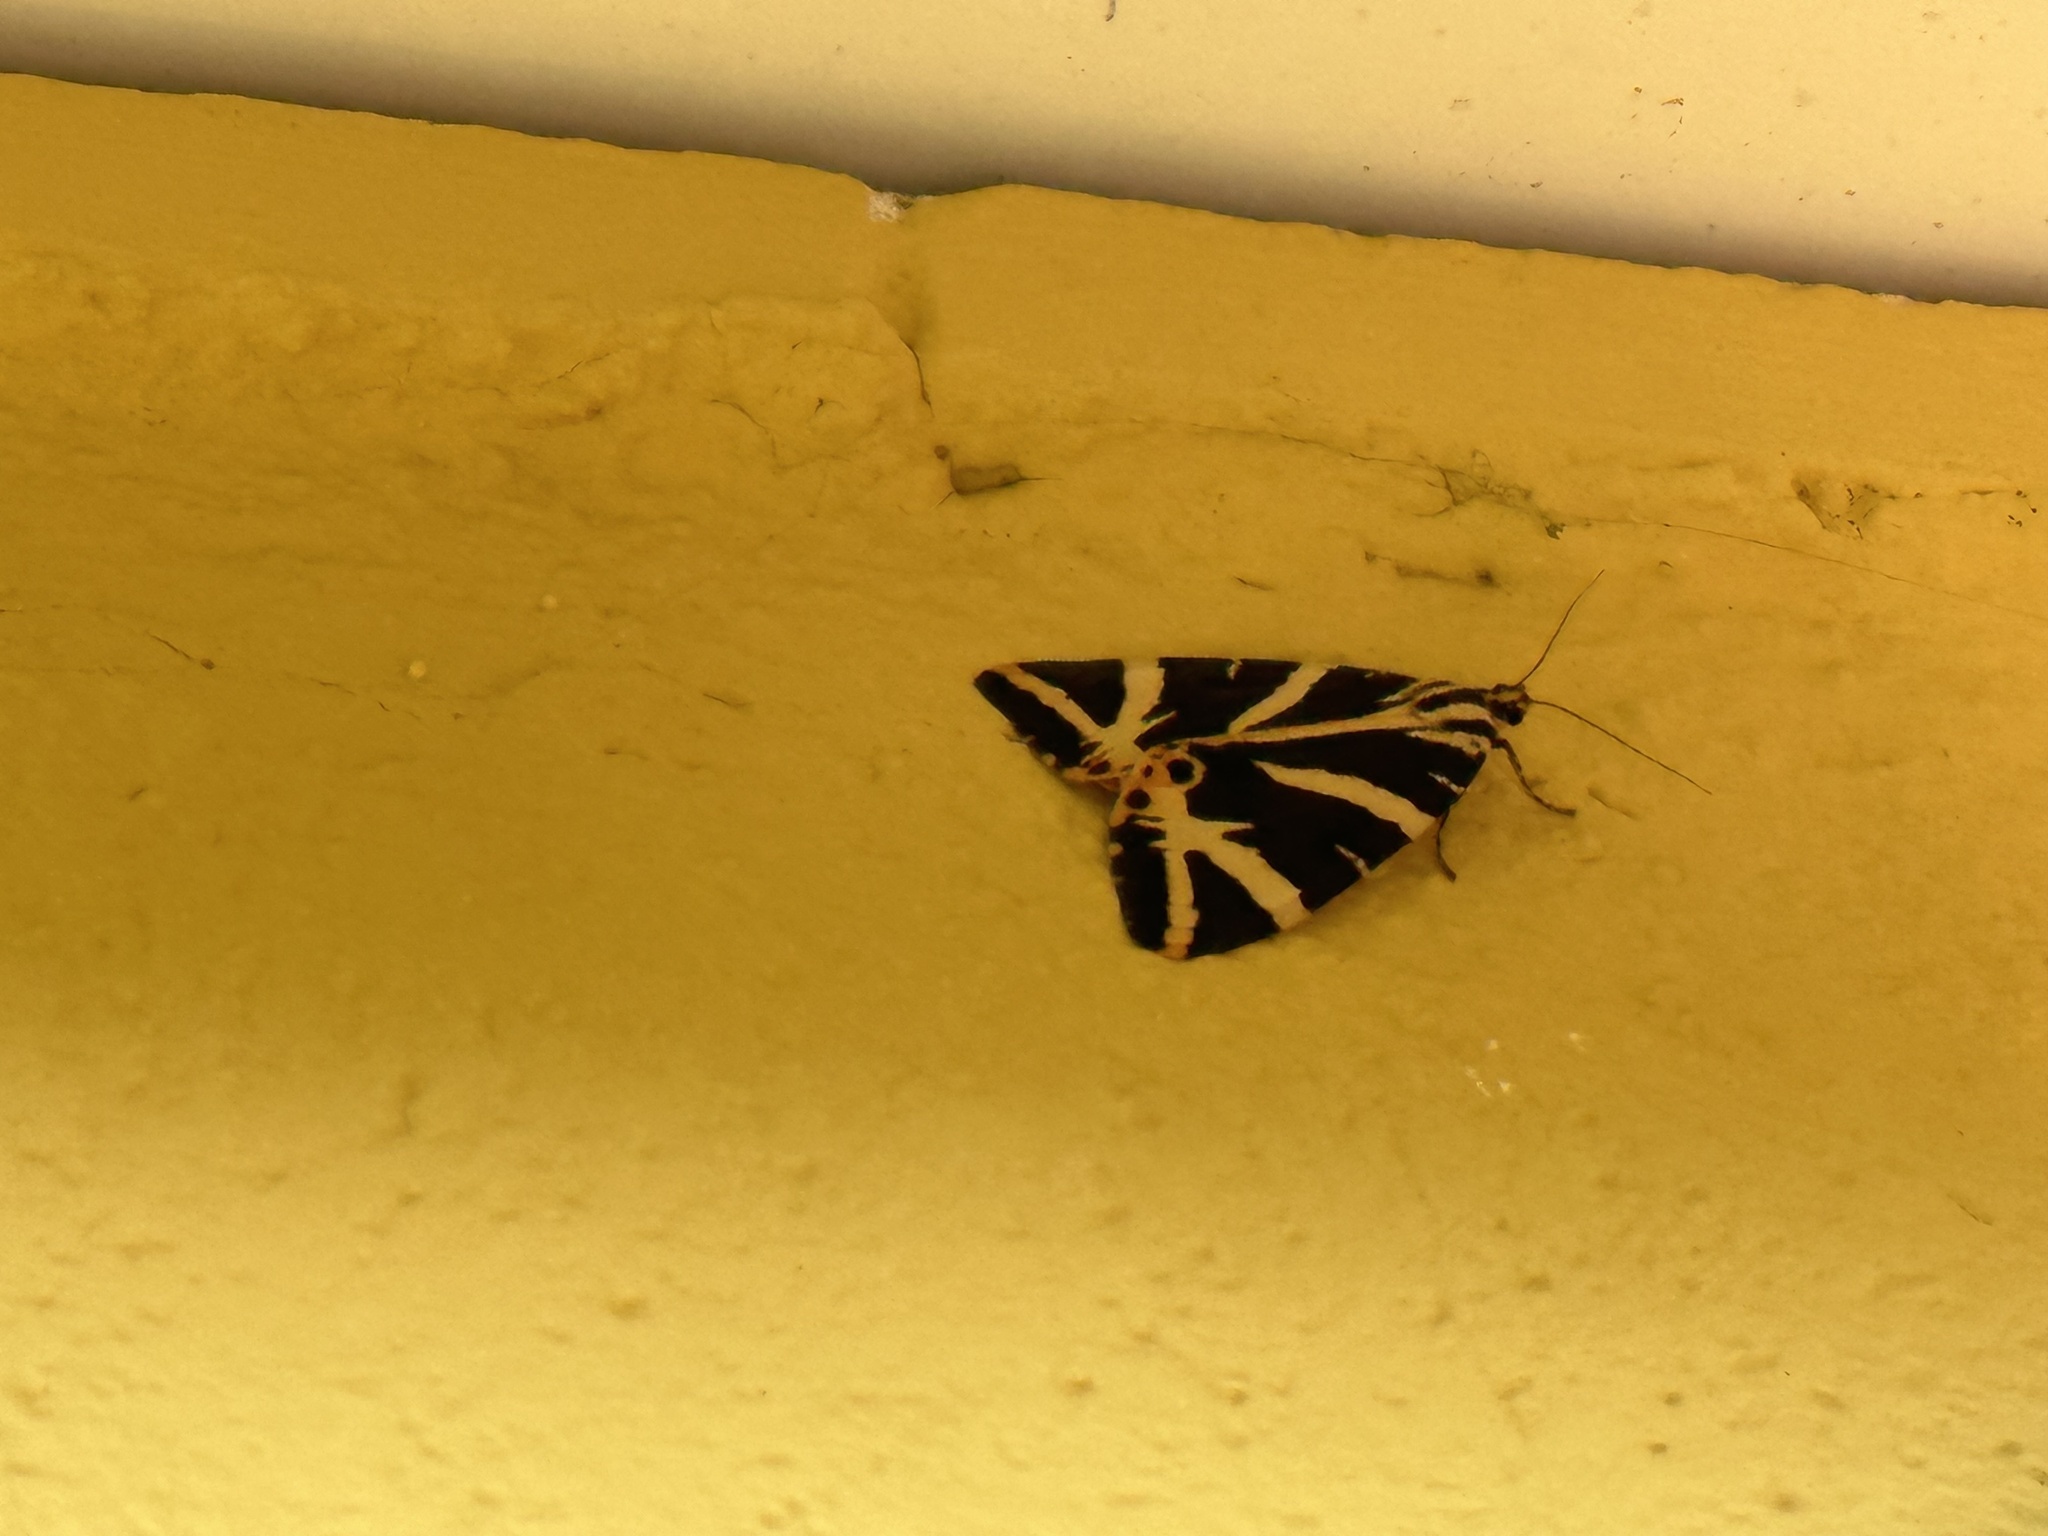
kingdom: Animalia
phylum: Arthropoda
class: Insecta
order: Lepidoptera
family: Erebidae
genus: Euplagia
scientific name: Euplagia quadripunctaria
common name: Jersey tiger
